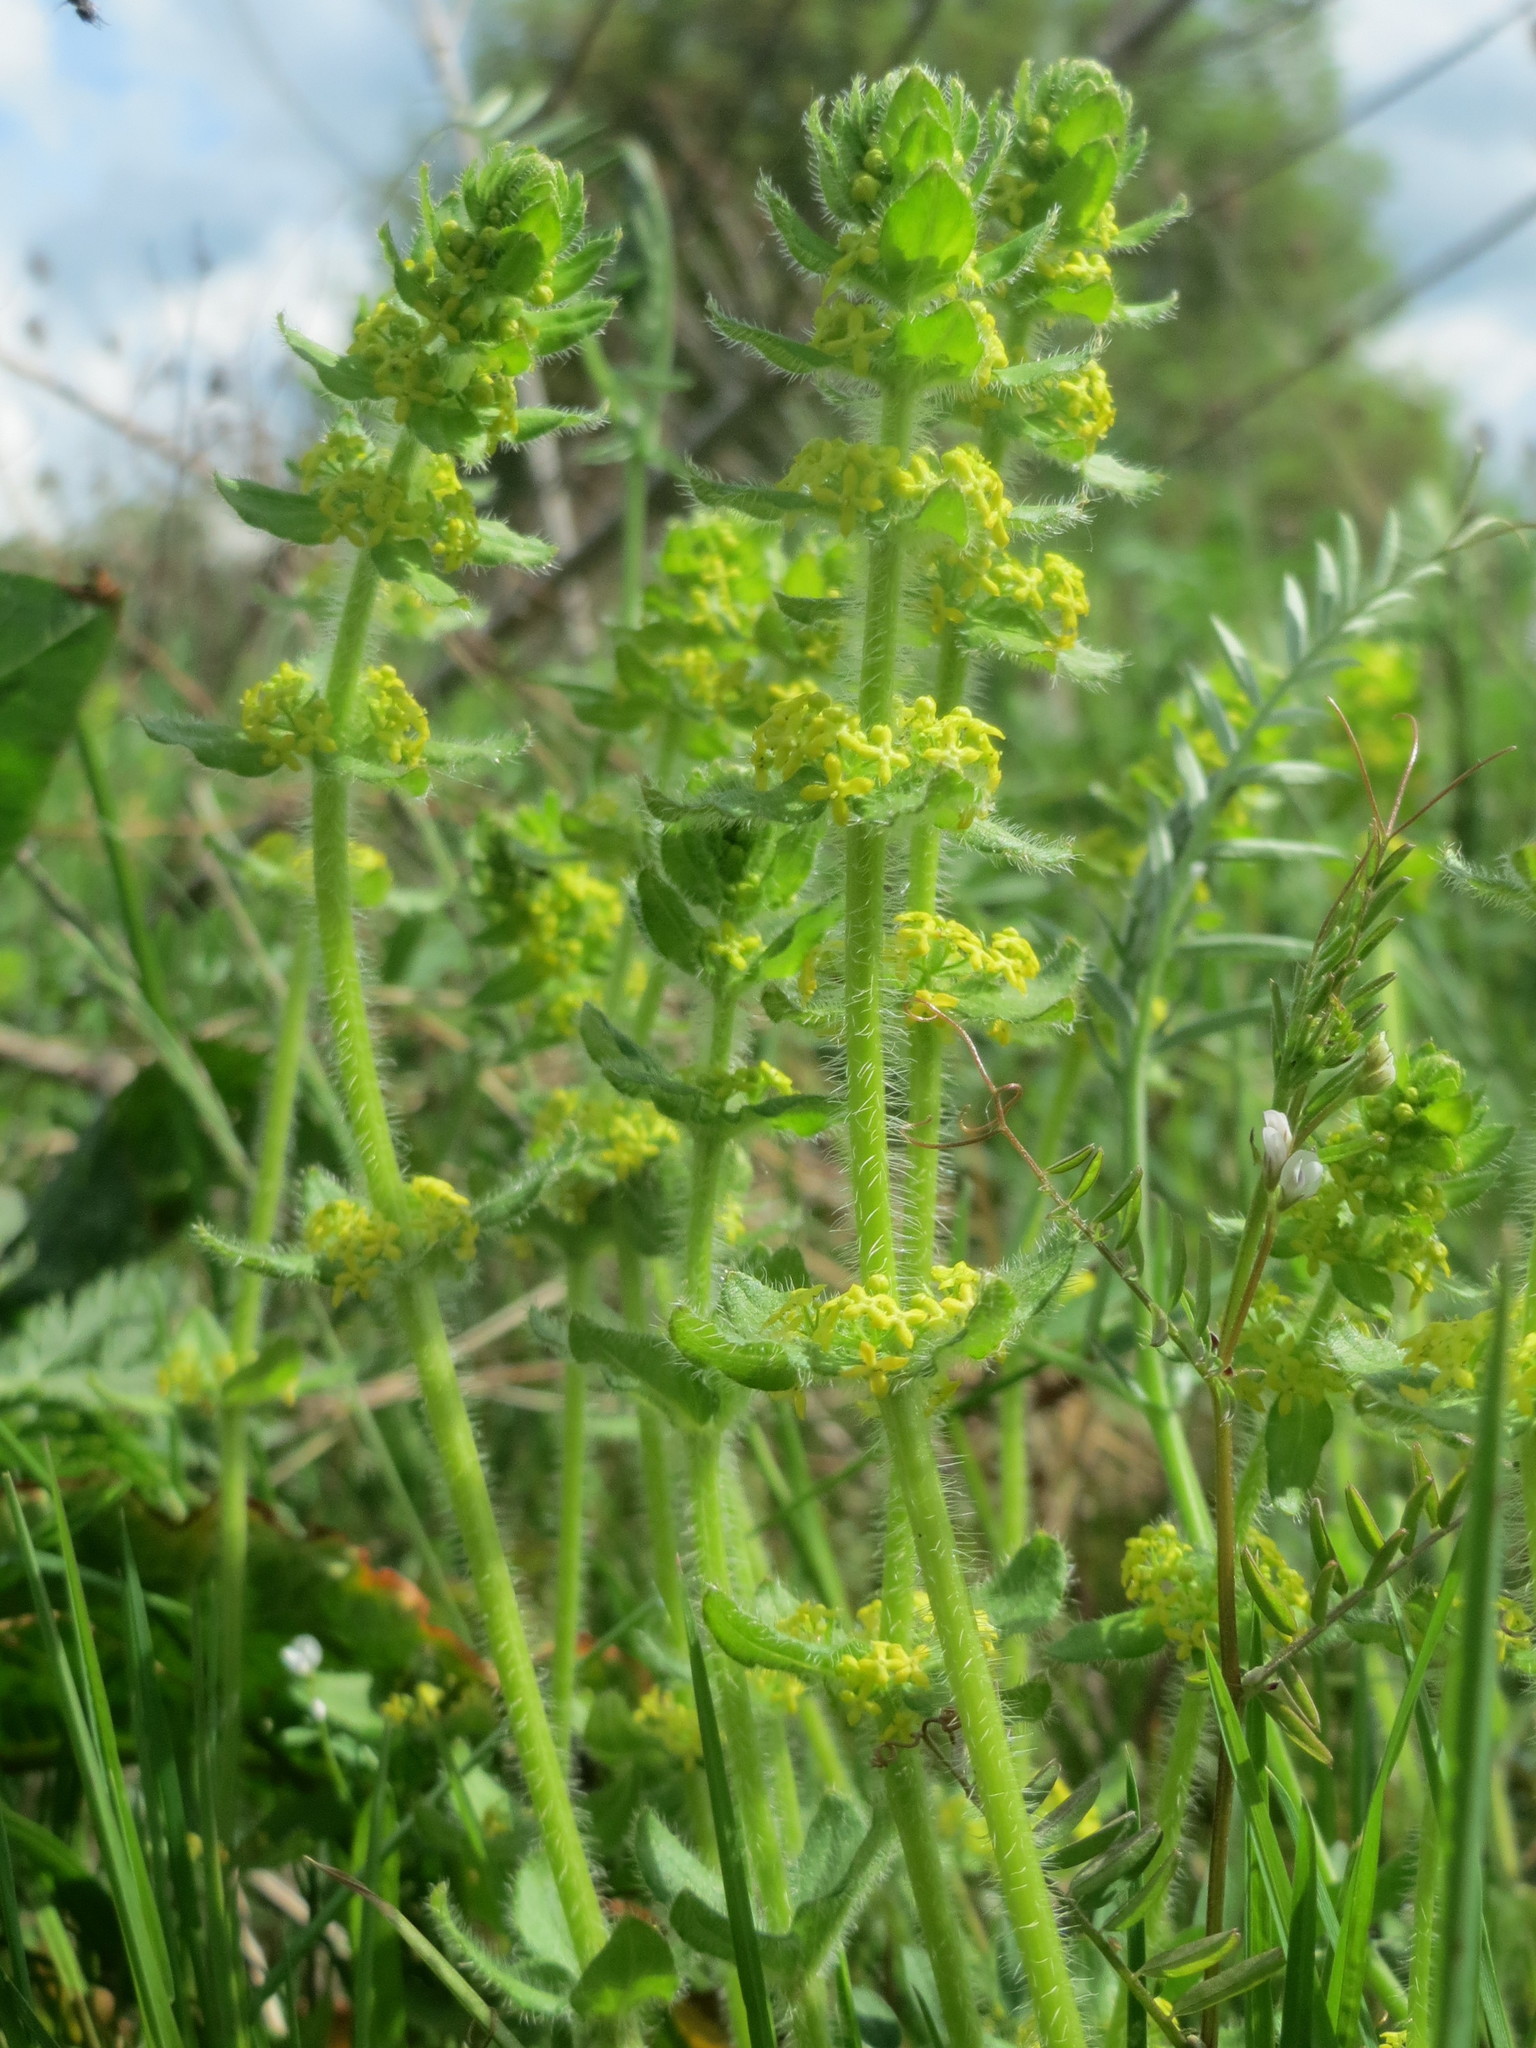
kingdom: Plantae
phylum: Tracheophyta
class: Magnoliopsida
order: Gentianales
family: Rubiaceae
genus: Cruciata
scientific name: Cruciata laevipes
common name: Crosswort
